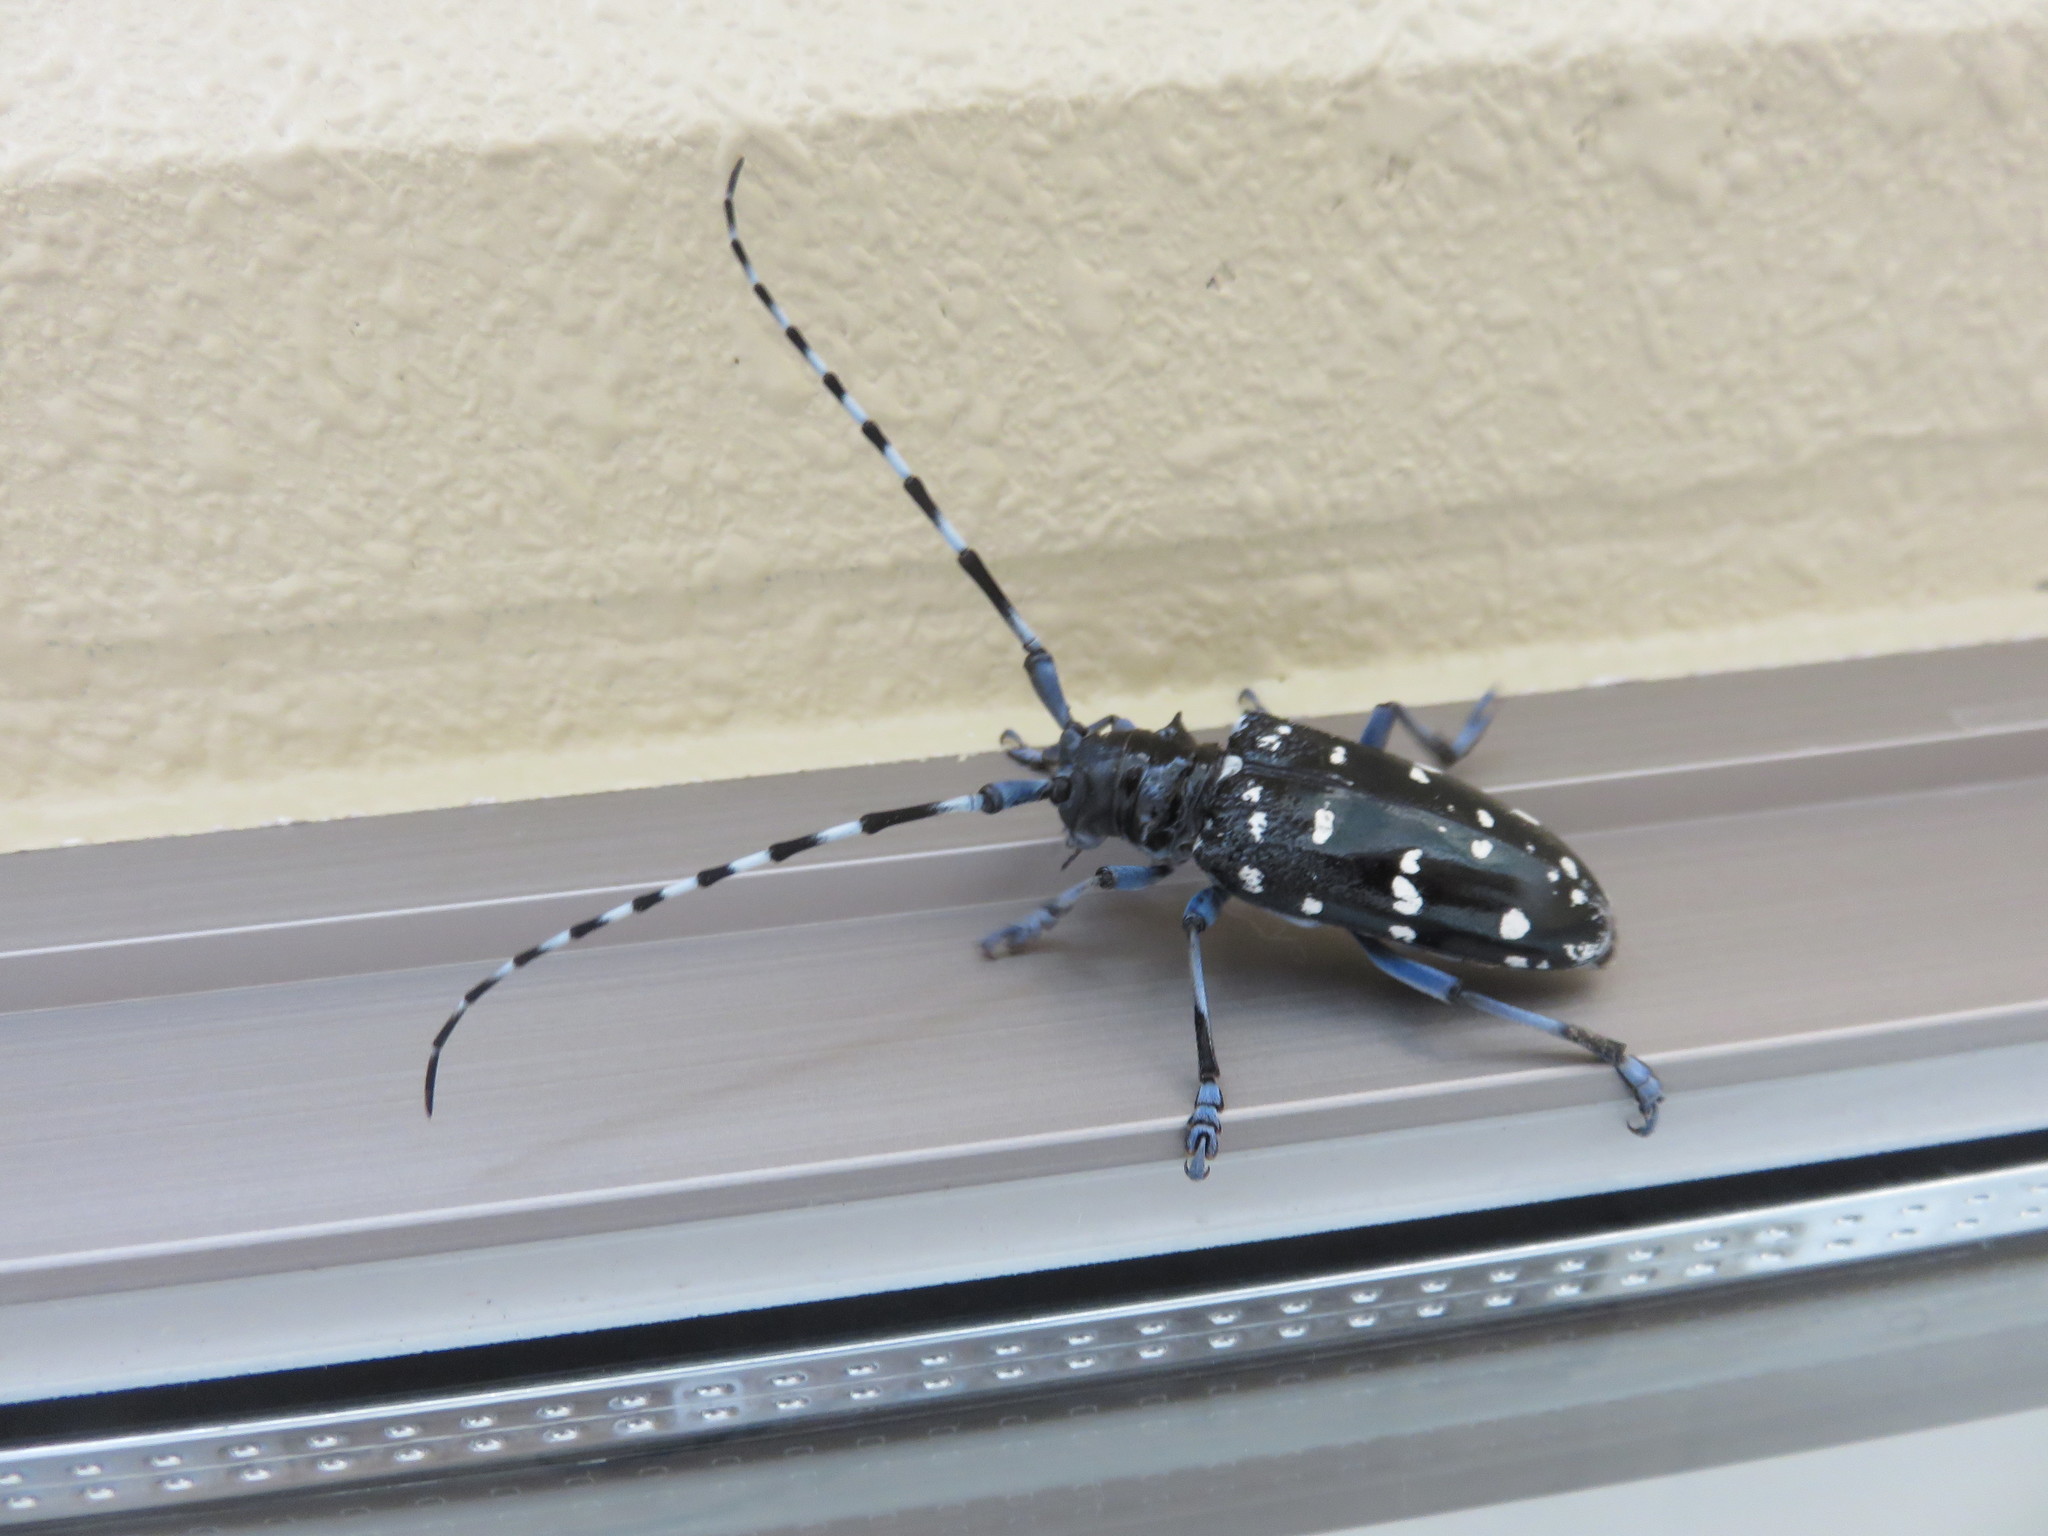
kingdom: Animalia
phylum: Arthropoda
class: Insecta
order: Coleoptera
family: Cerambycidae
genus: Anoplophora
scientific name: Anoplophora chinensis
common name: Citrus longhorned beetle
